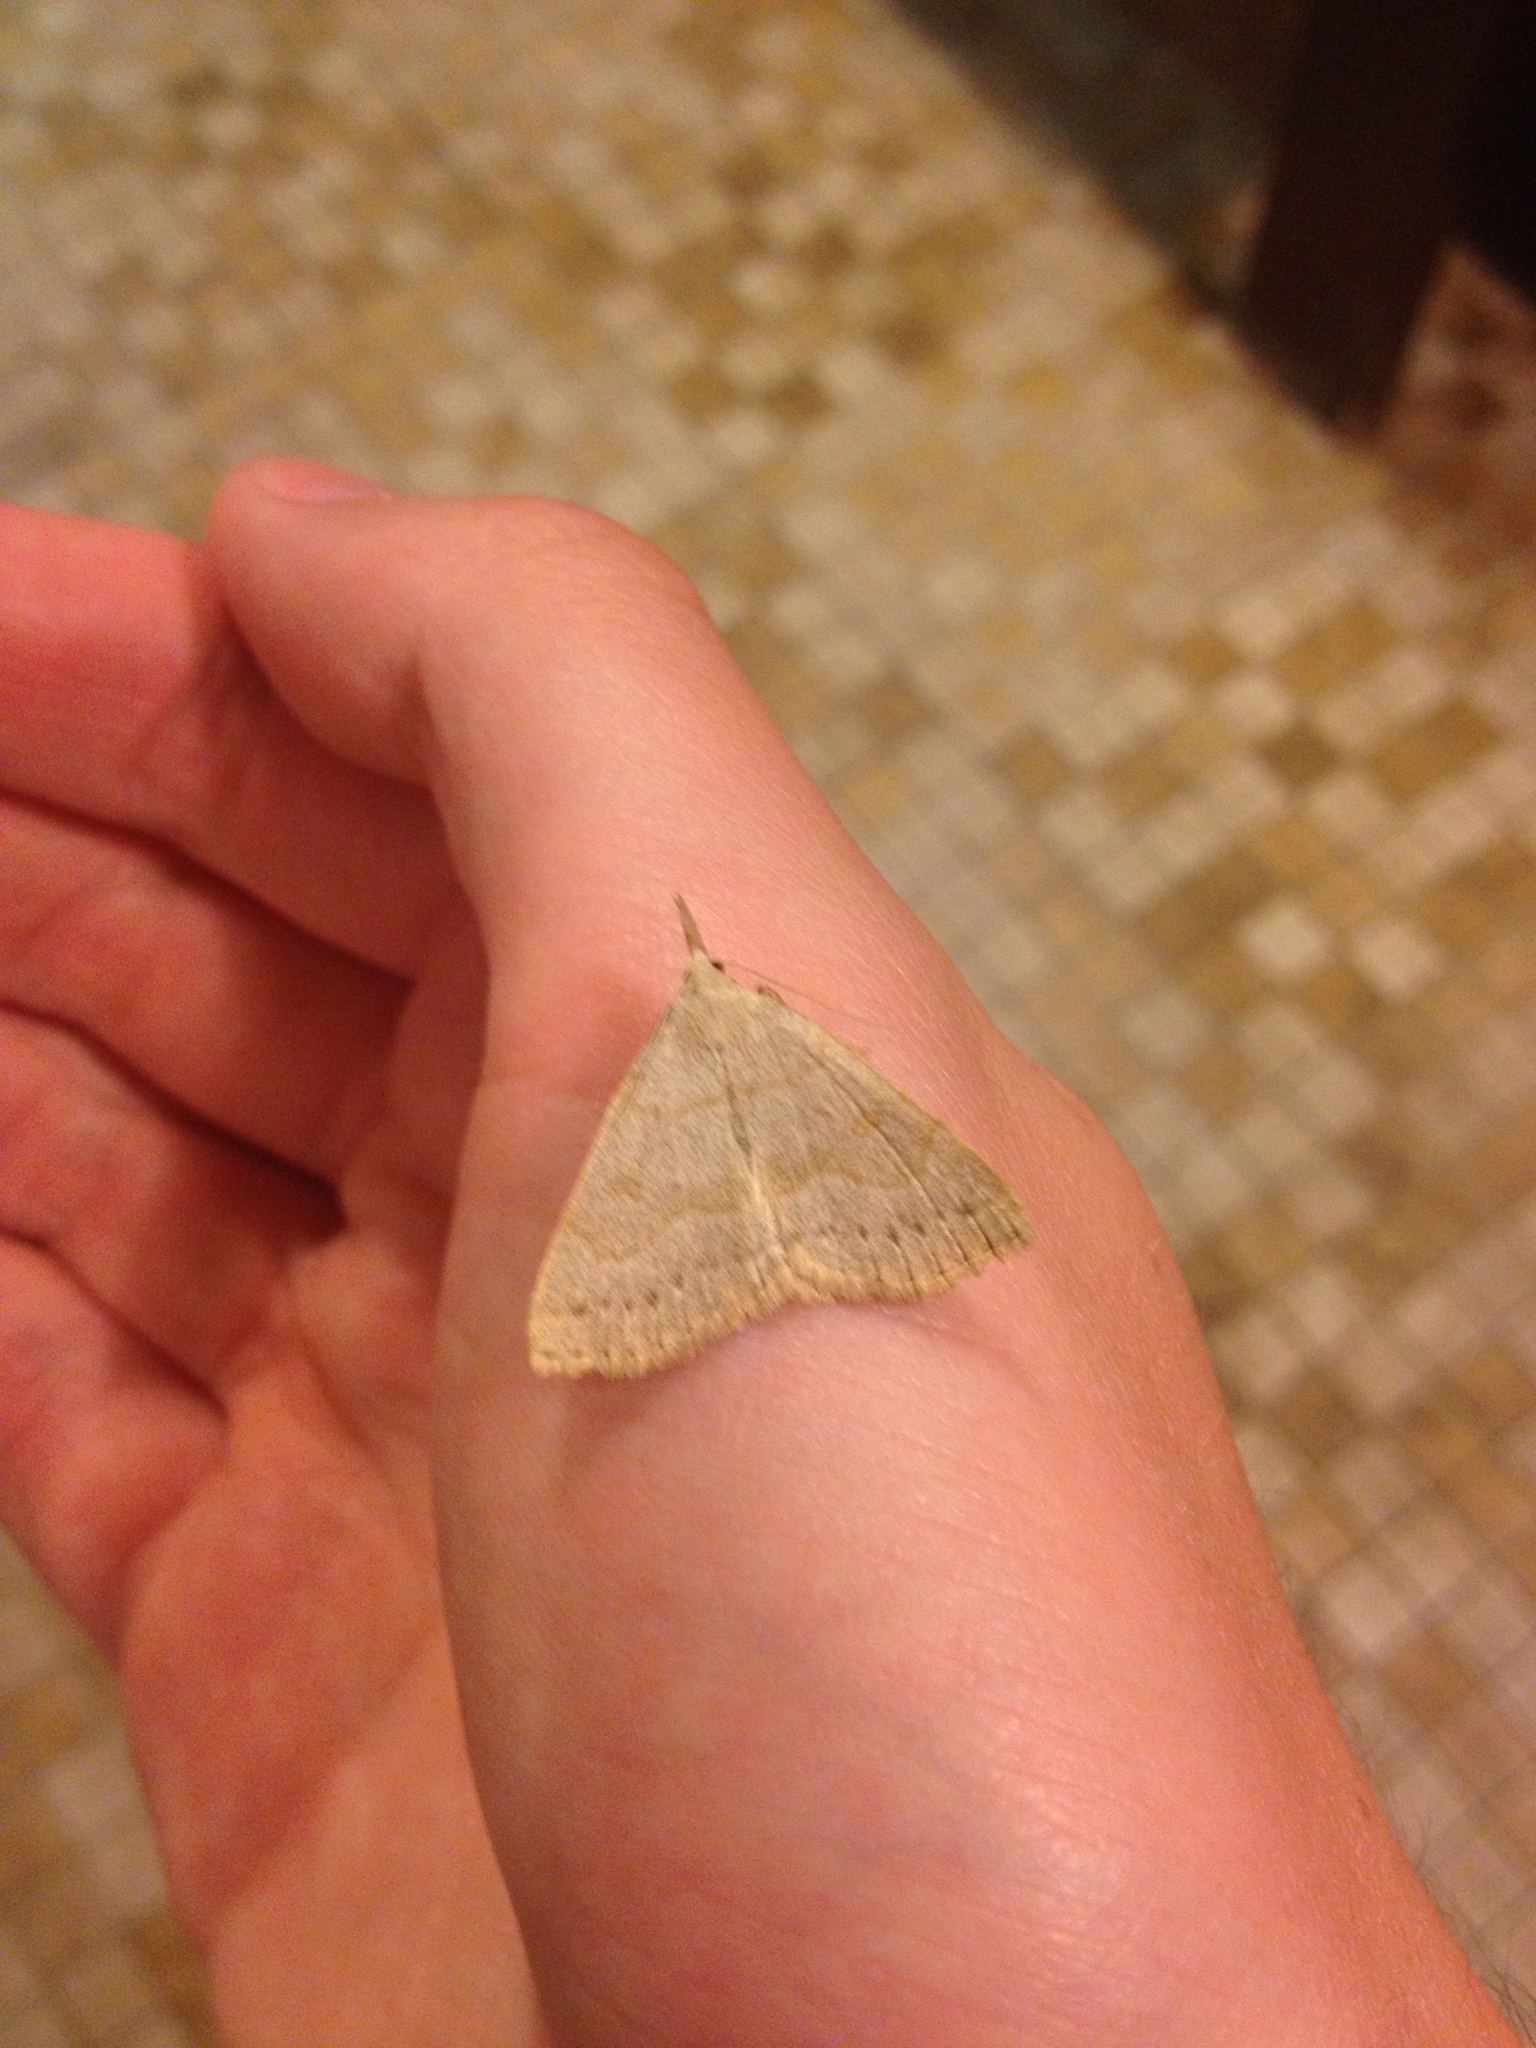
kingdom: Animalia
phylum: Arthropoda
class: Insecta
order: Lepidoptera
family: Erebidae
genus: Macrochilo
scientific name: Macrochilo morbidalis
